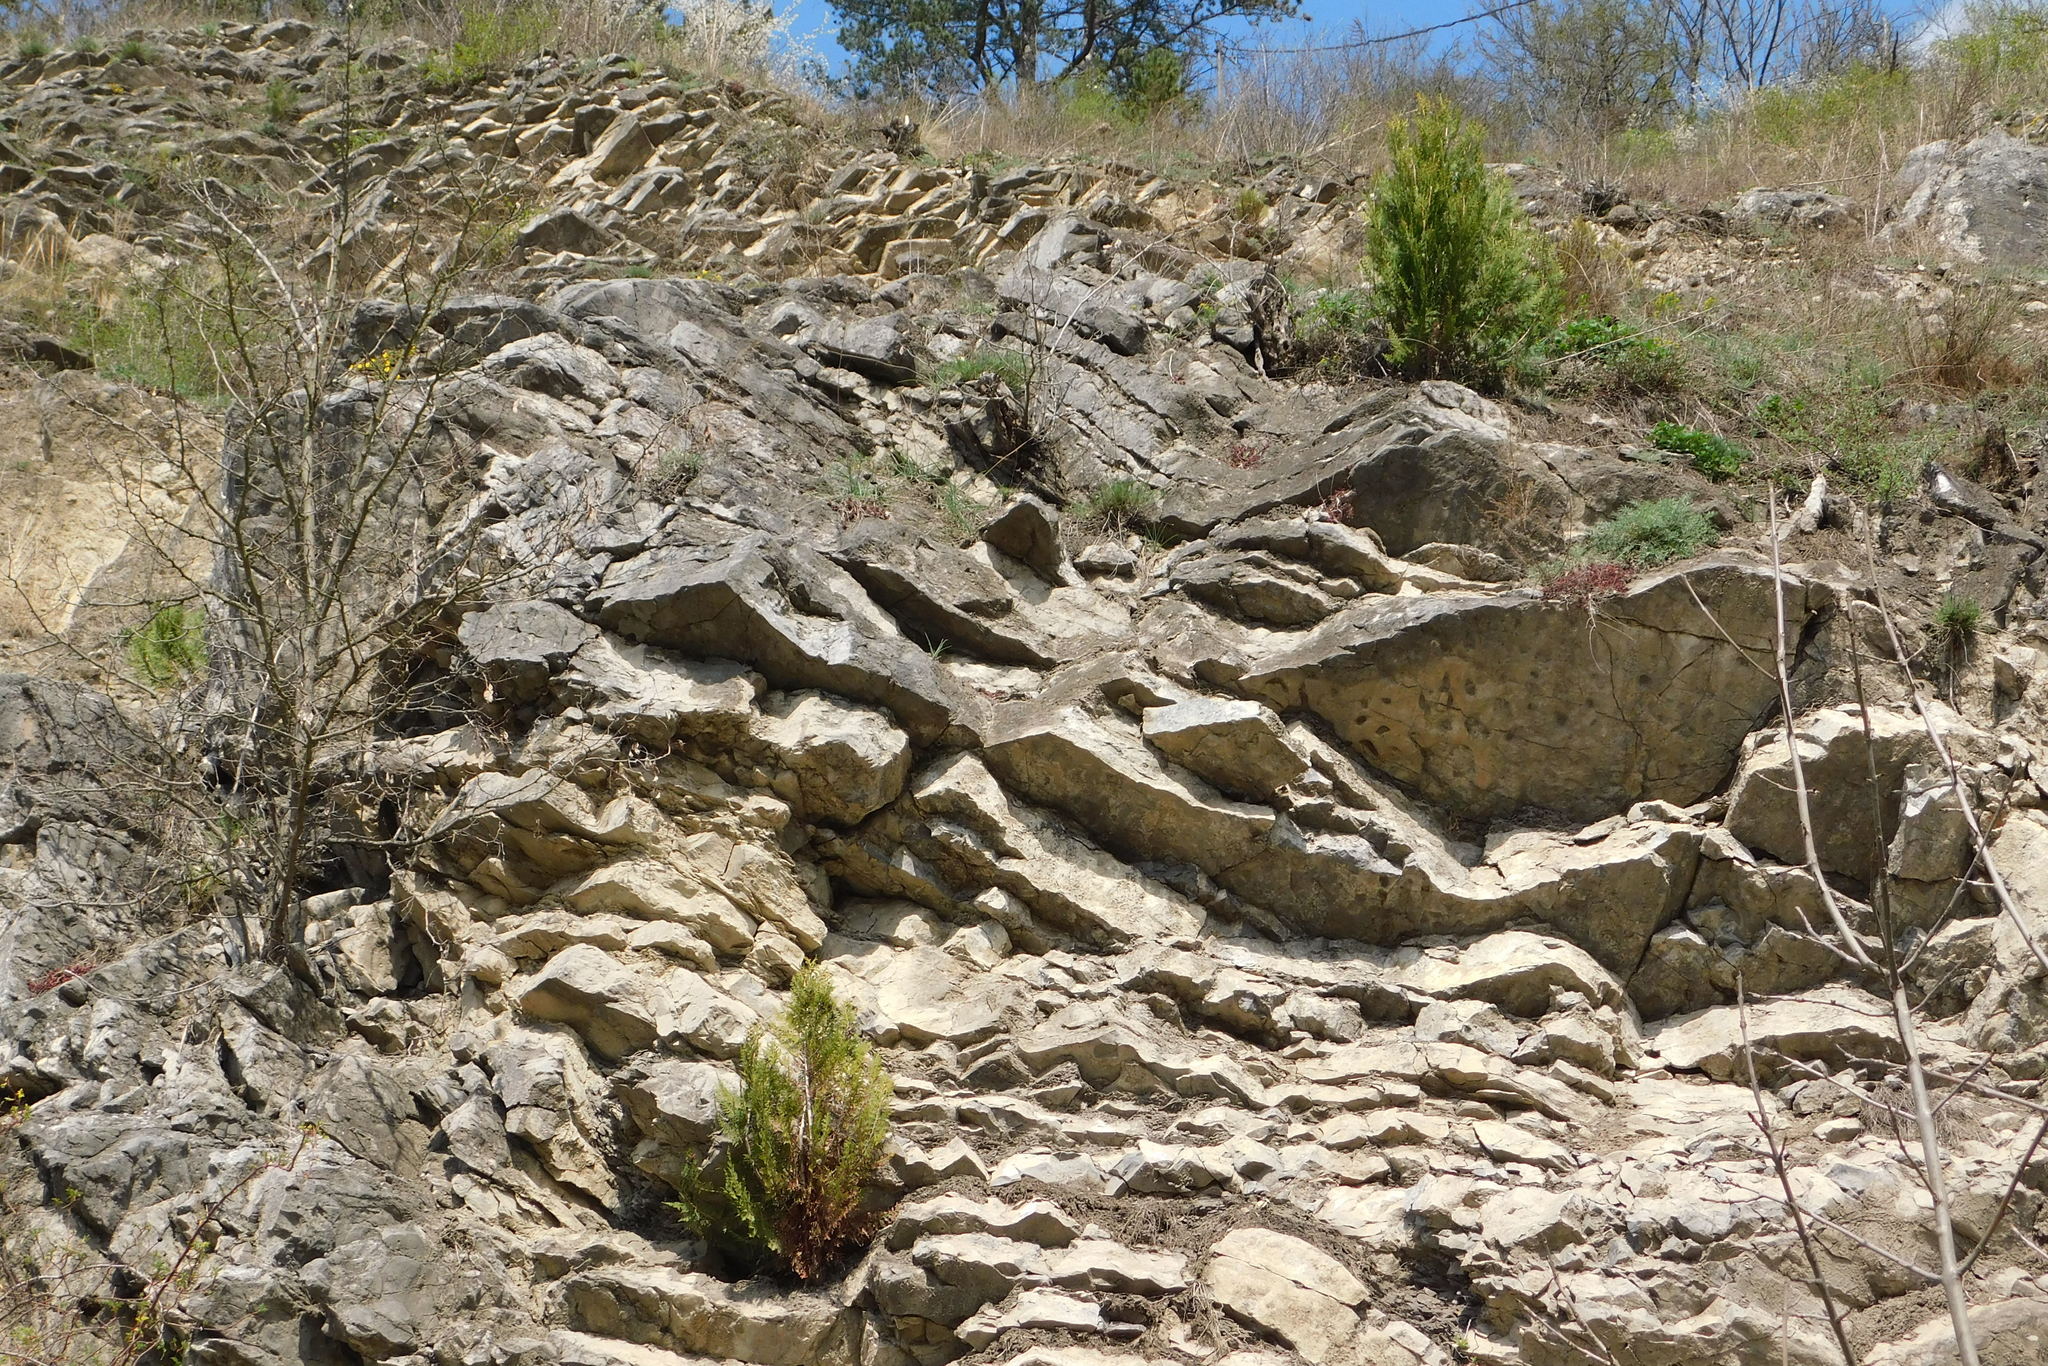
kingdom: Plantae
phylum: Tracheophyta
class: Pinopsida
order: Pinales
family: Cupressaceae
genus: Platycladus
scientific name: Platycladus orientalis
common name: Chinese thuja
